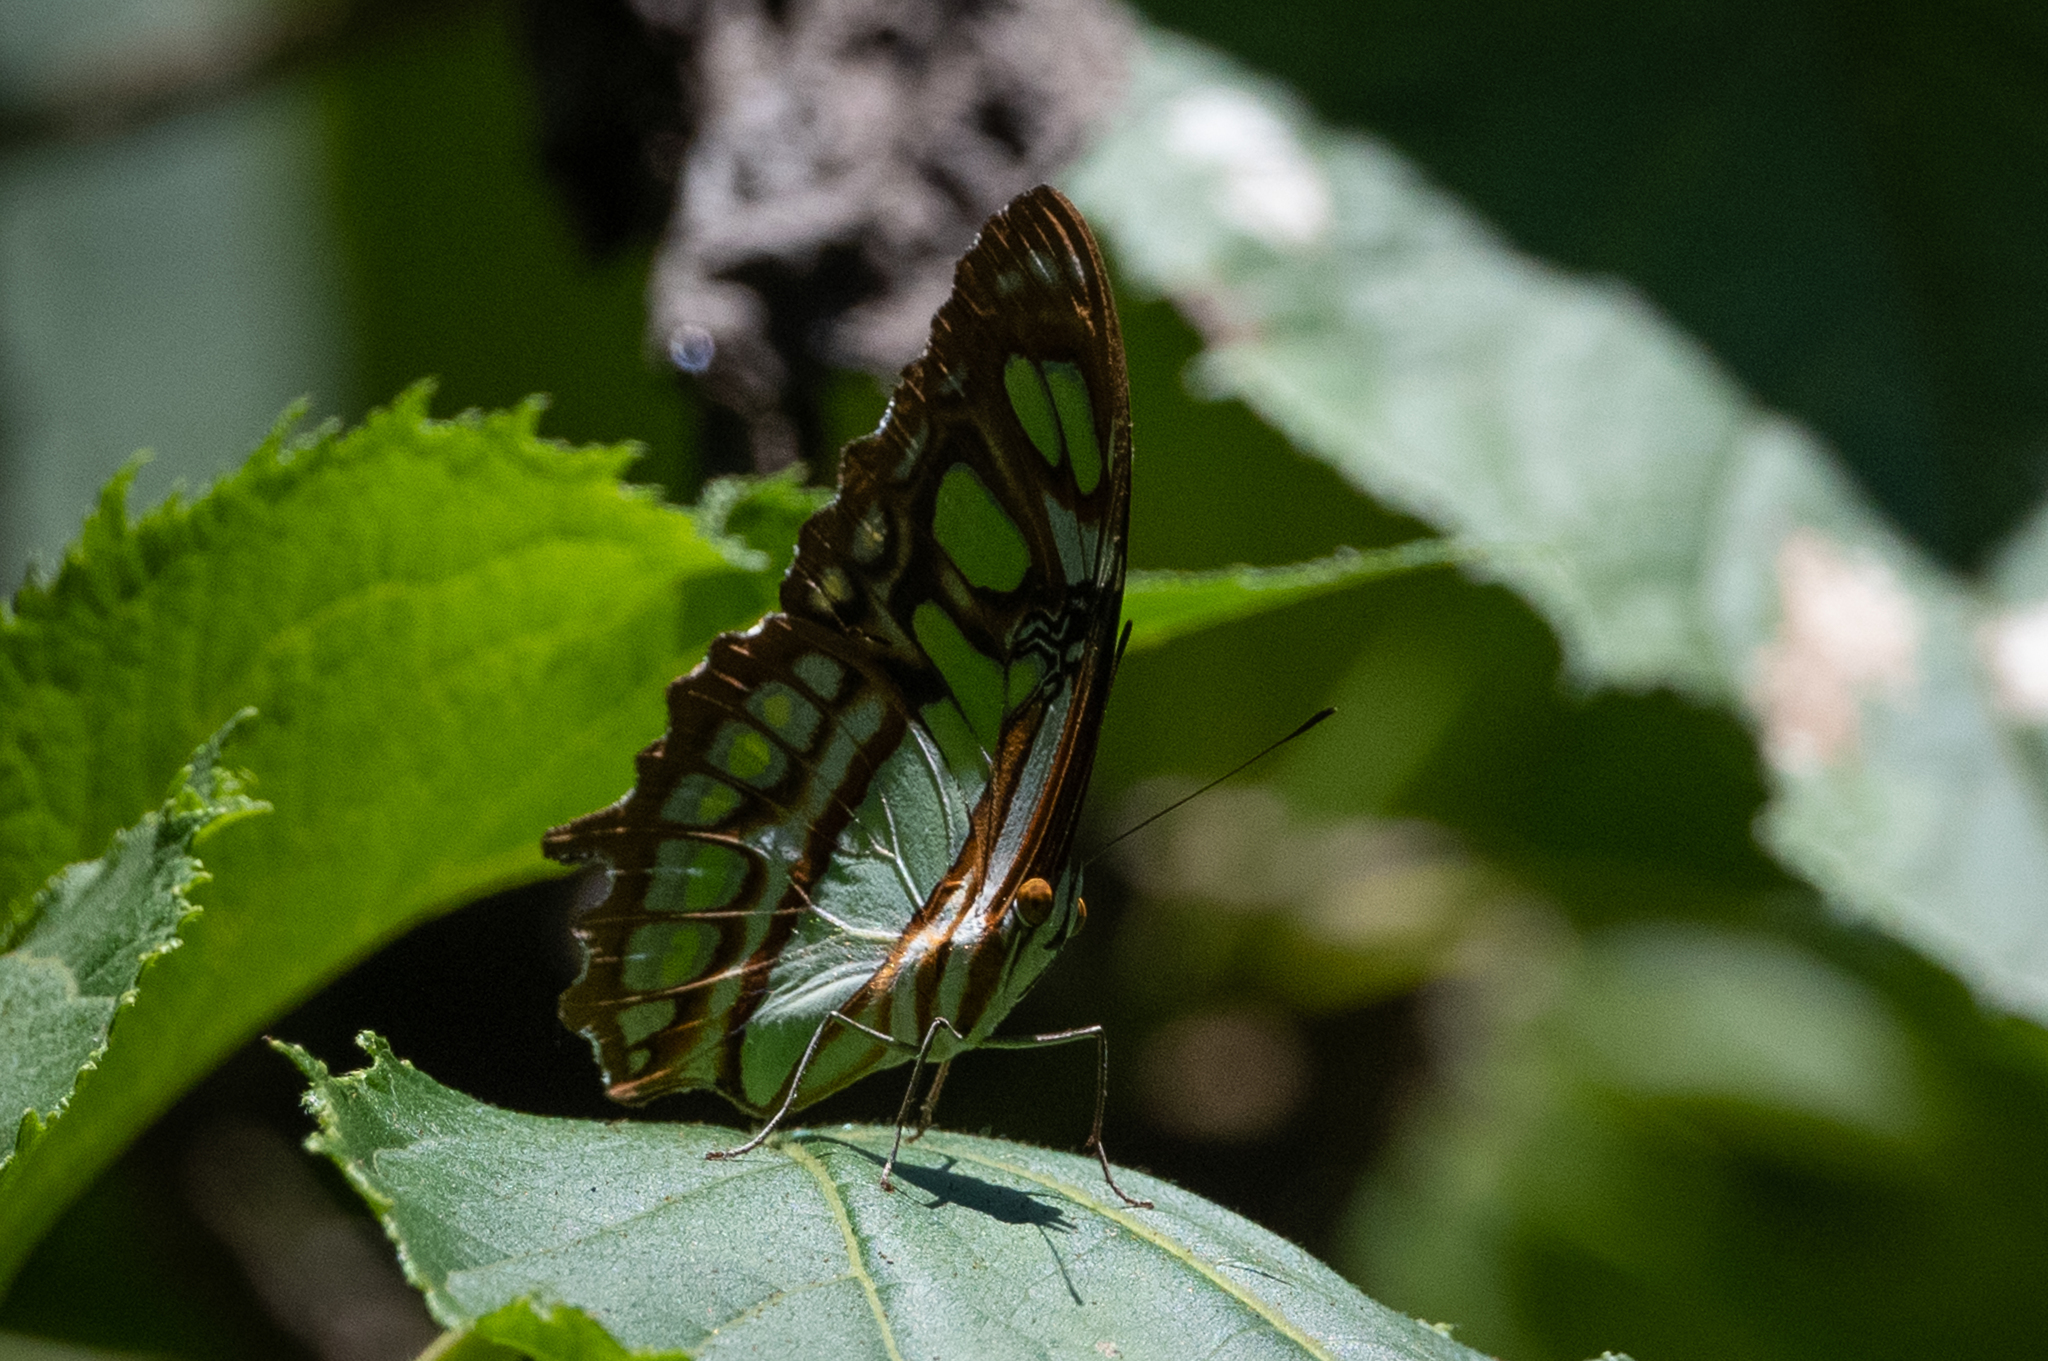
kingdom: Animalia
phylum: Arthropoda
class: Insecta
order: Lepidoptera
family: Nymphalidae
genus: Siproeta
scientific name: Siproeta stelenes
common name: Malachite
